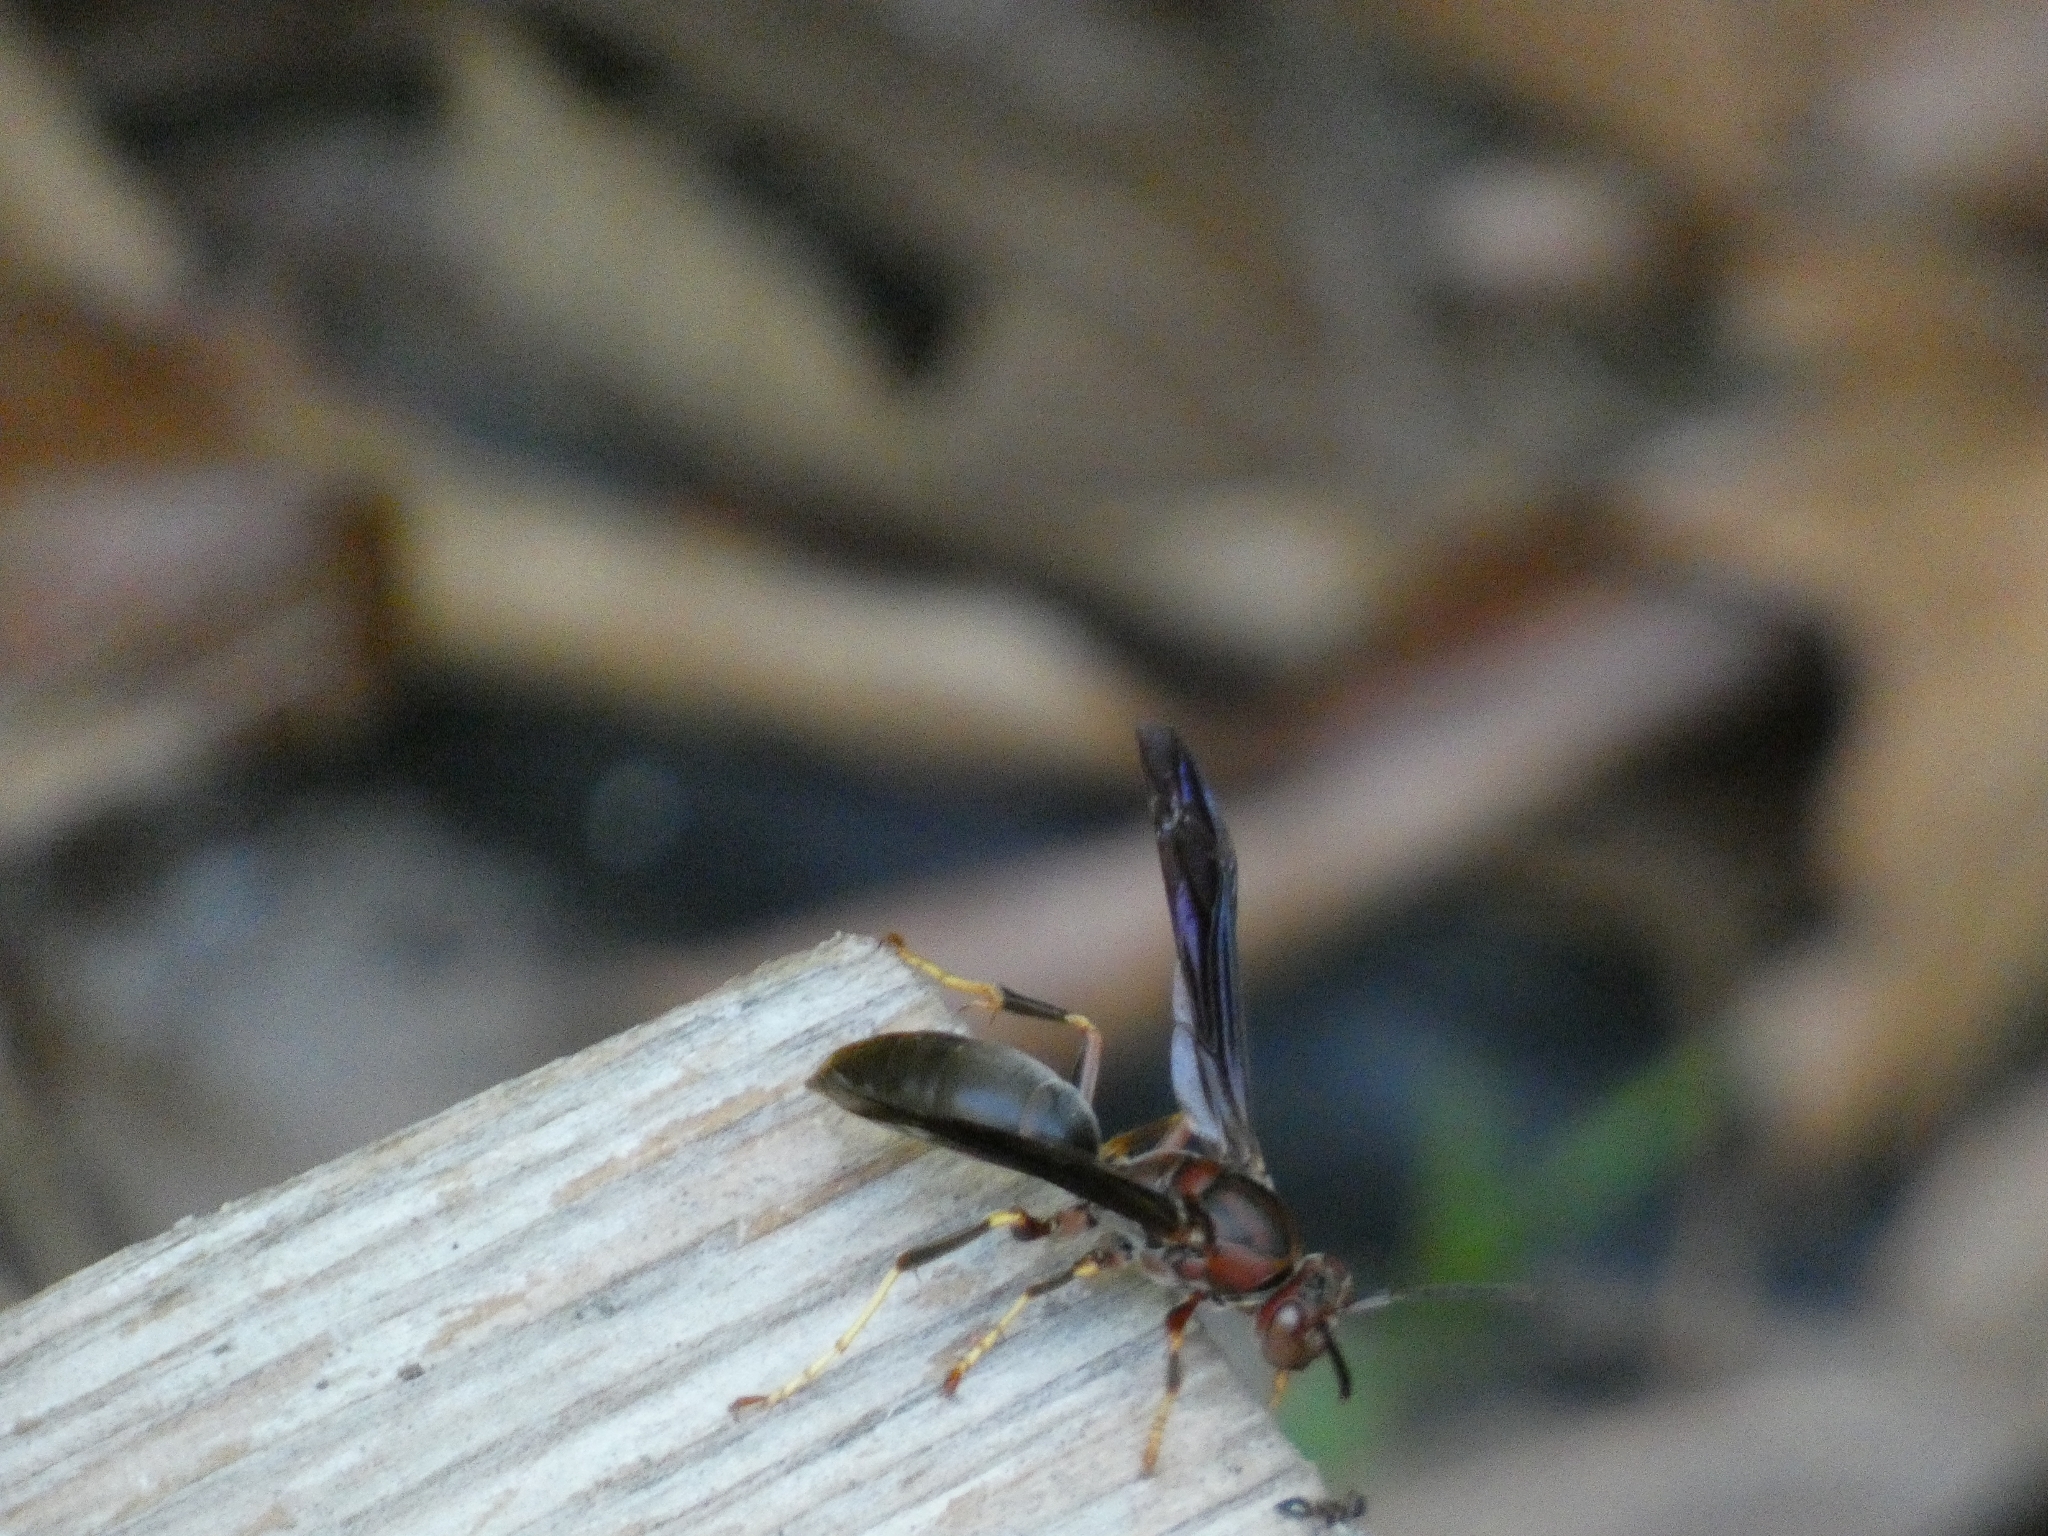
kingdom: Animalia
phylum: Arthropoda
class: Insecta
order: Hymenoptera
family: Eumenidae
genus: Polistes
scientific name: Polistes metricus
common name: Metric paper wasp
